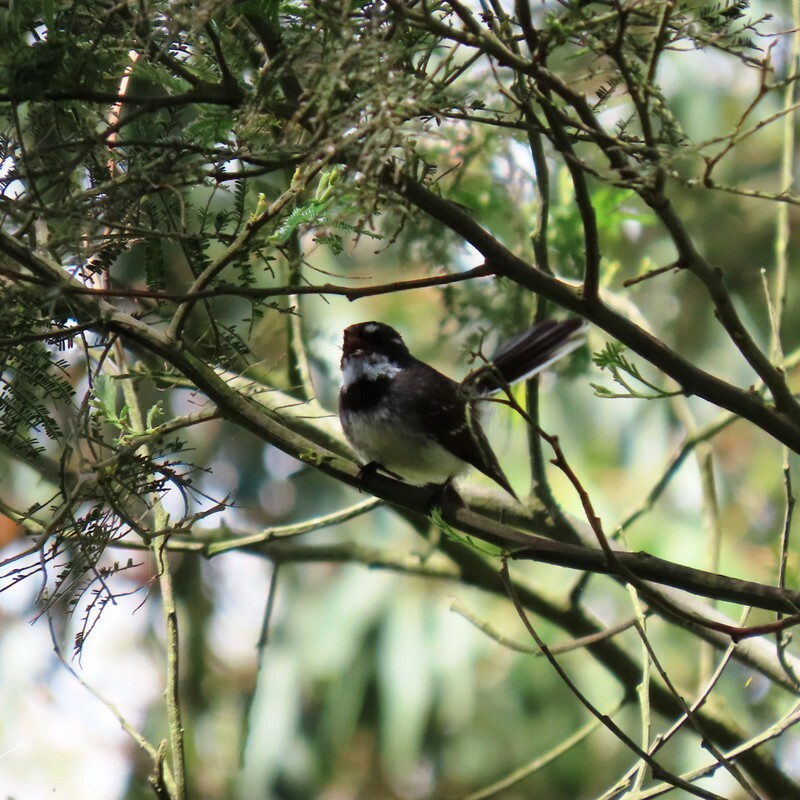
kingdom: Animalia
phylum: Chordata
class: Aves
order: Passeriformes
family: Rhipiduridae
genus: Rhipidura
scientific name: Rhipidura albiscapa
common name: Grey fantail
